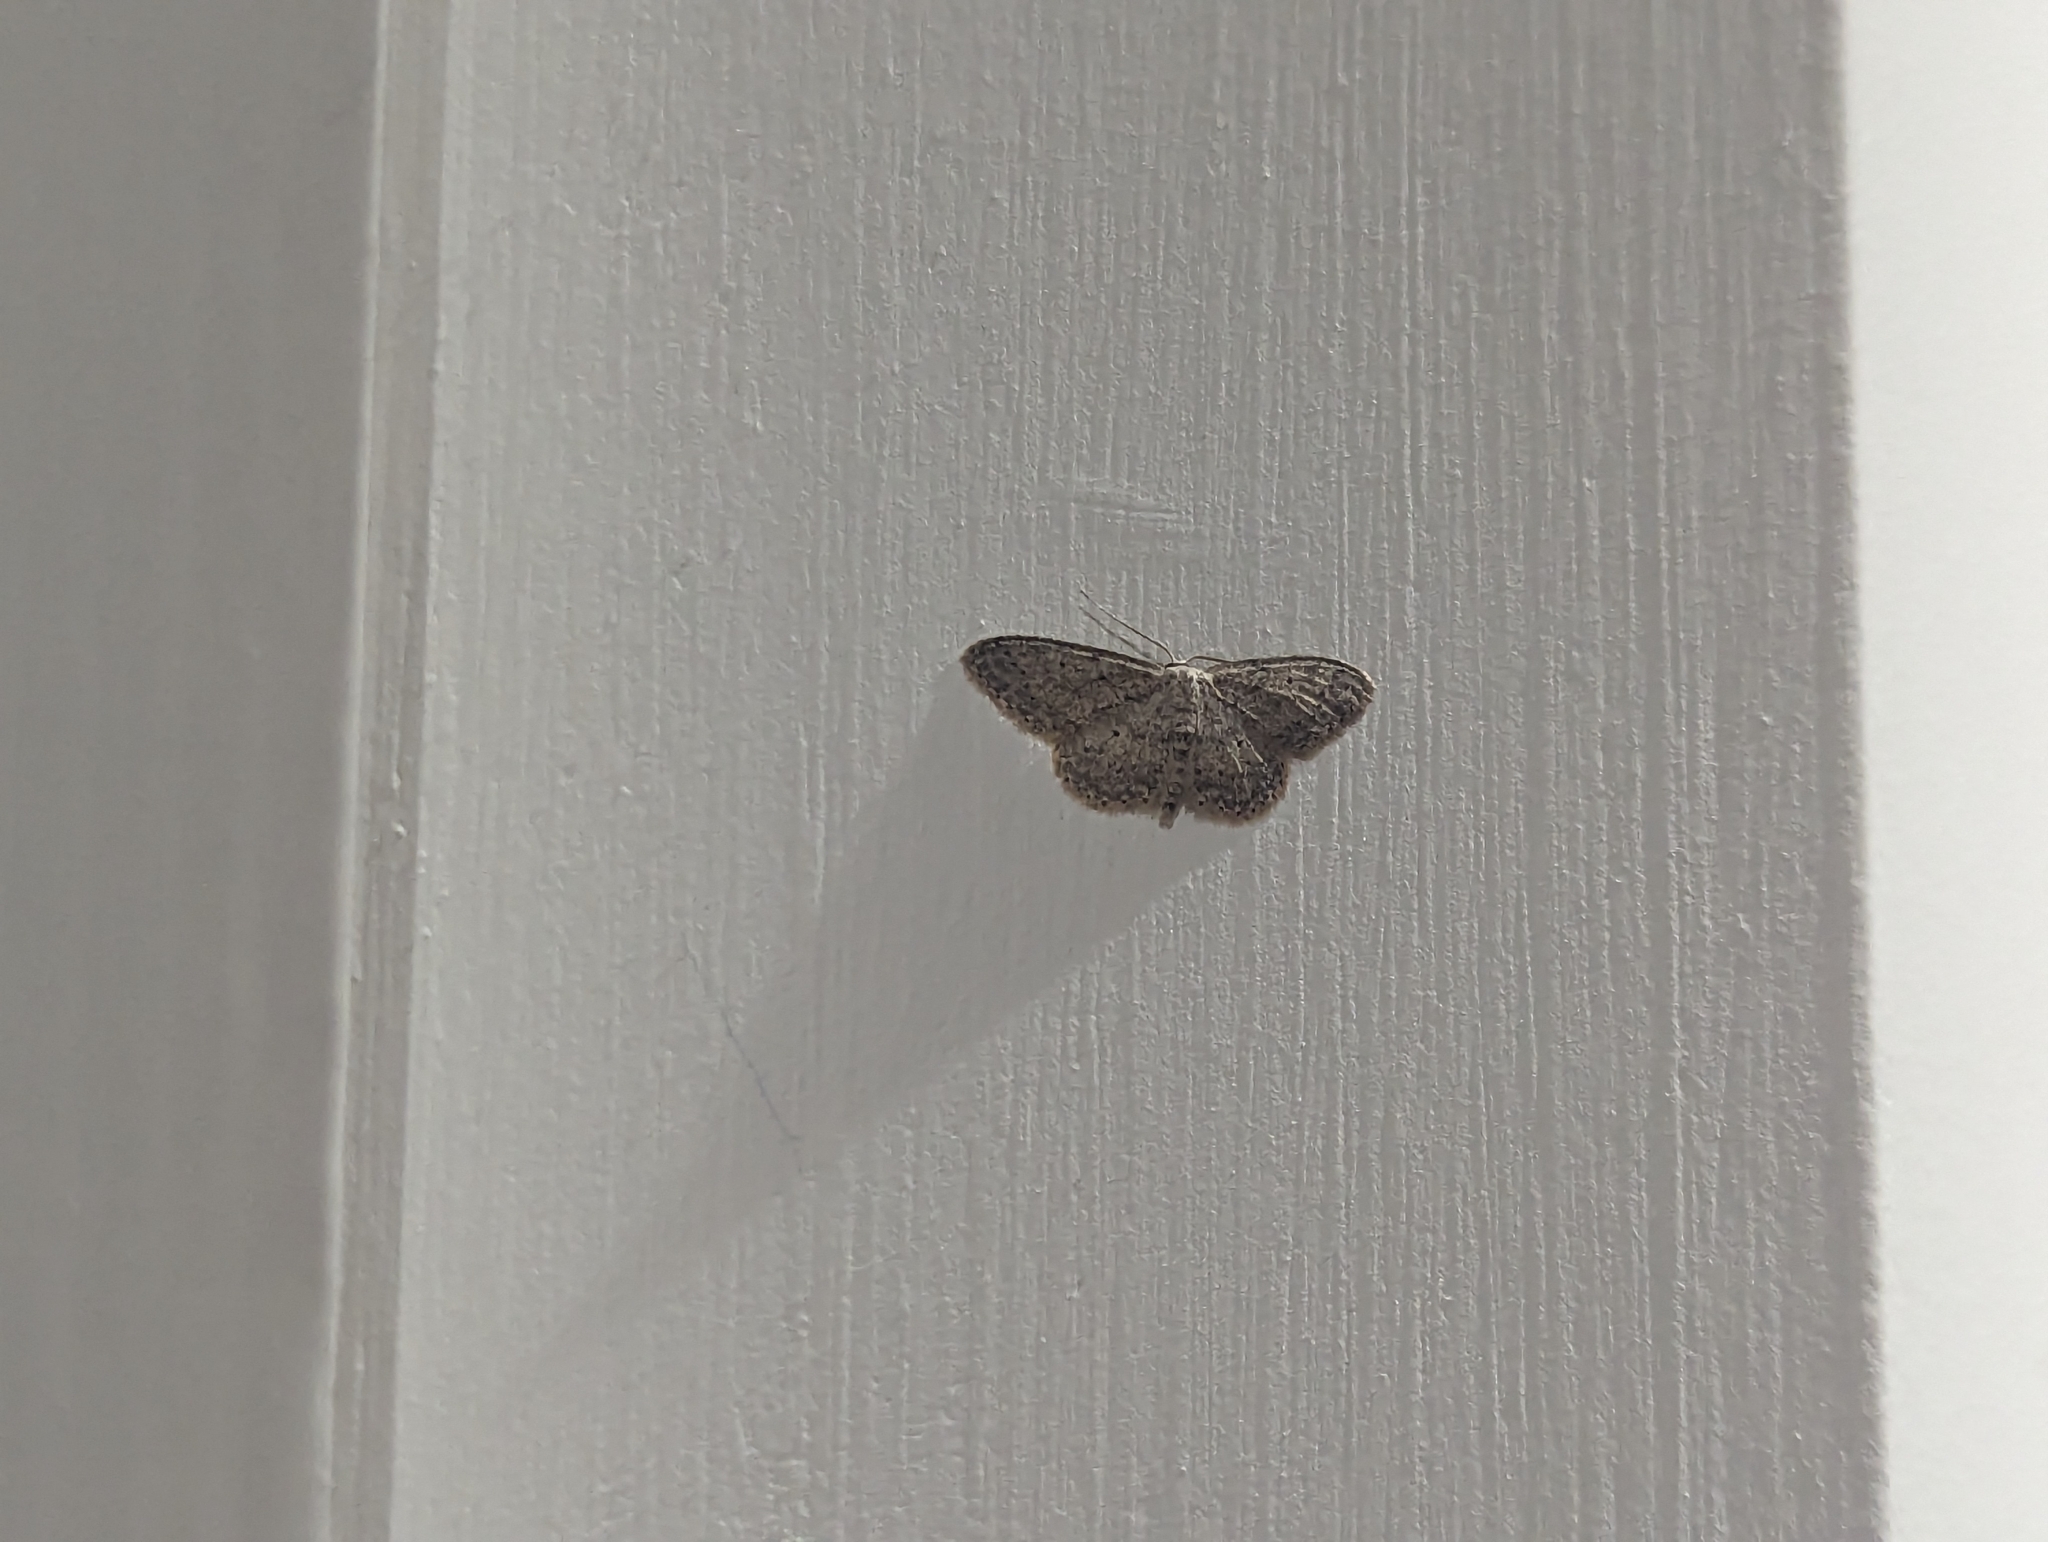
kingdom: Animalia
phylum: Arthropoda
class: Insecta
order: Lepidoptera
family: Geometridae
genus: Idaea
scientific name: Idaea seriata
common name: Small dusty wave
